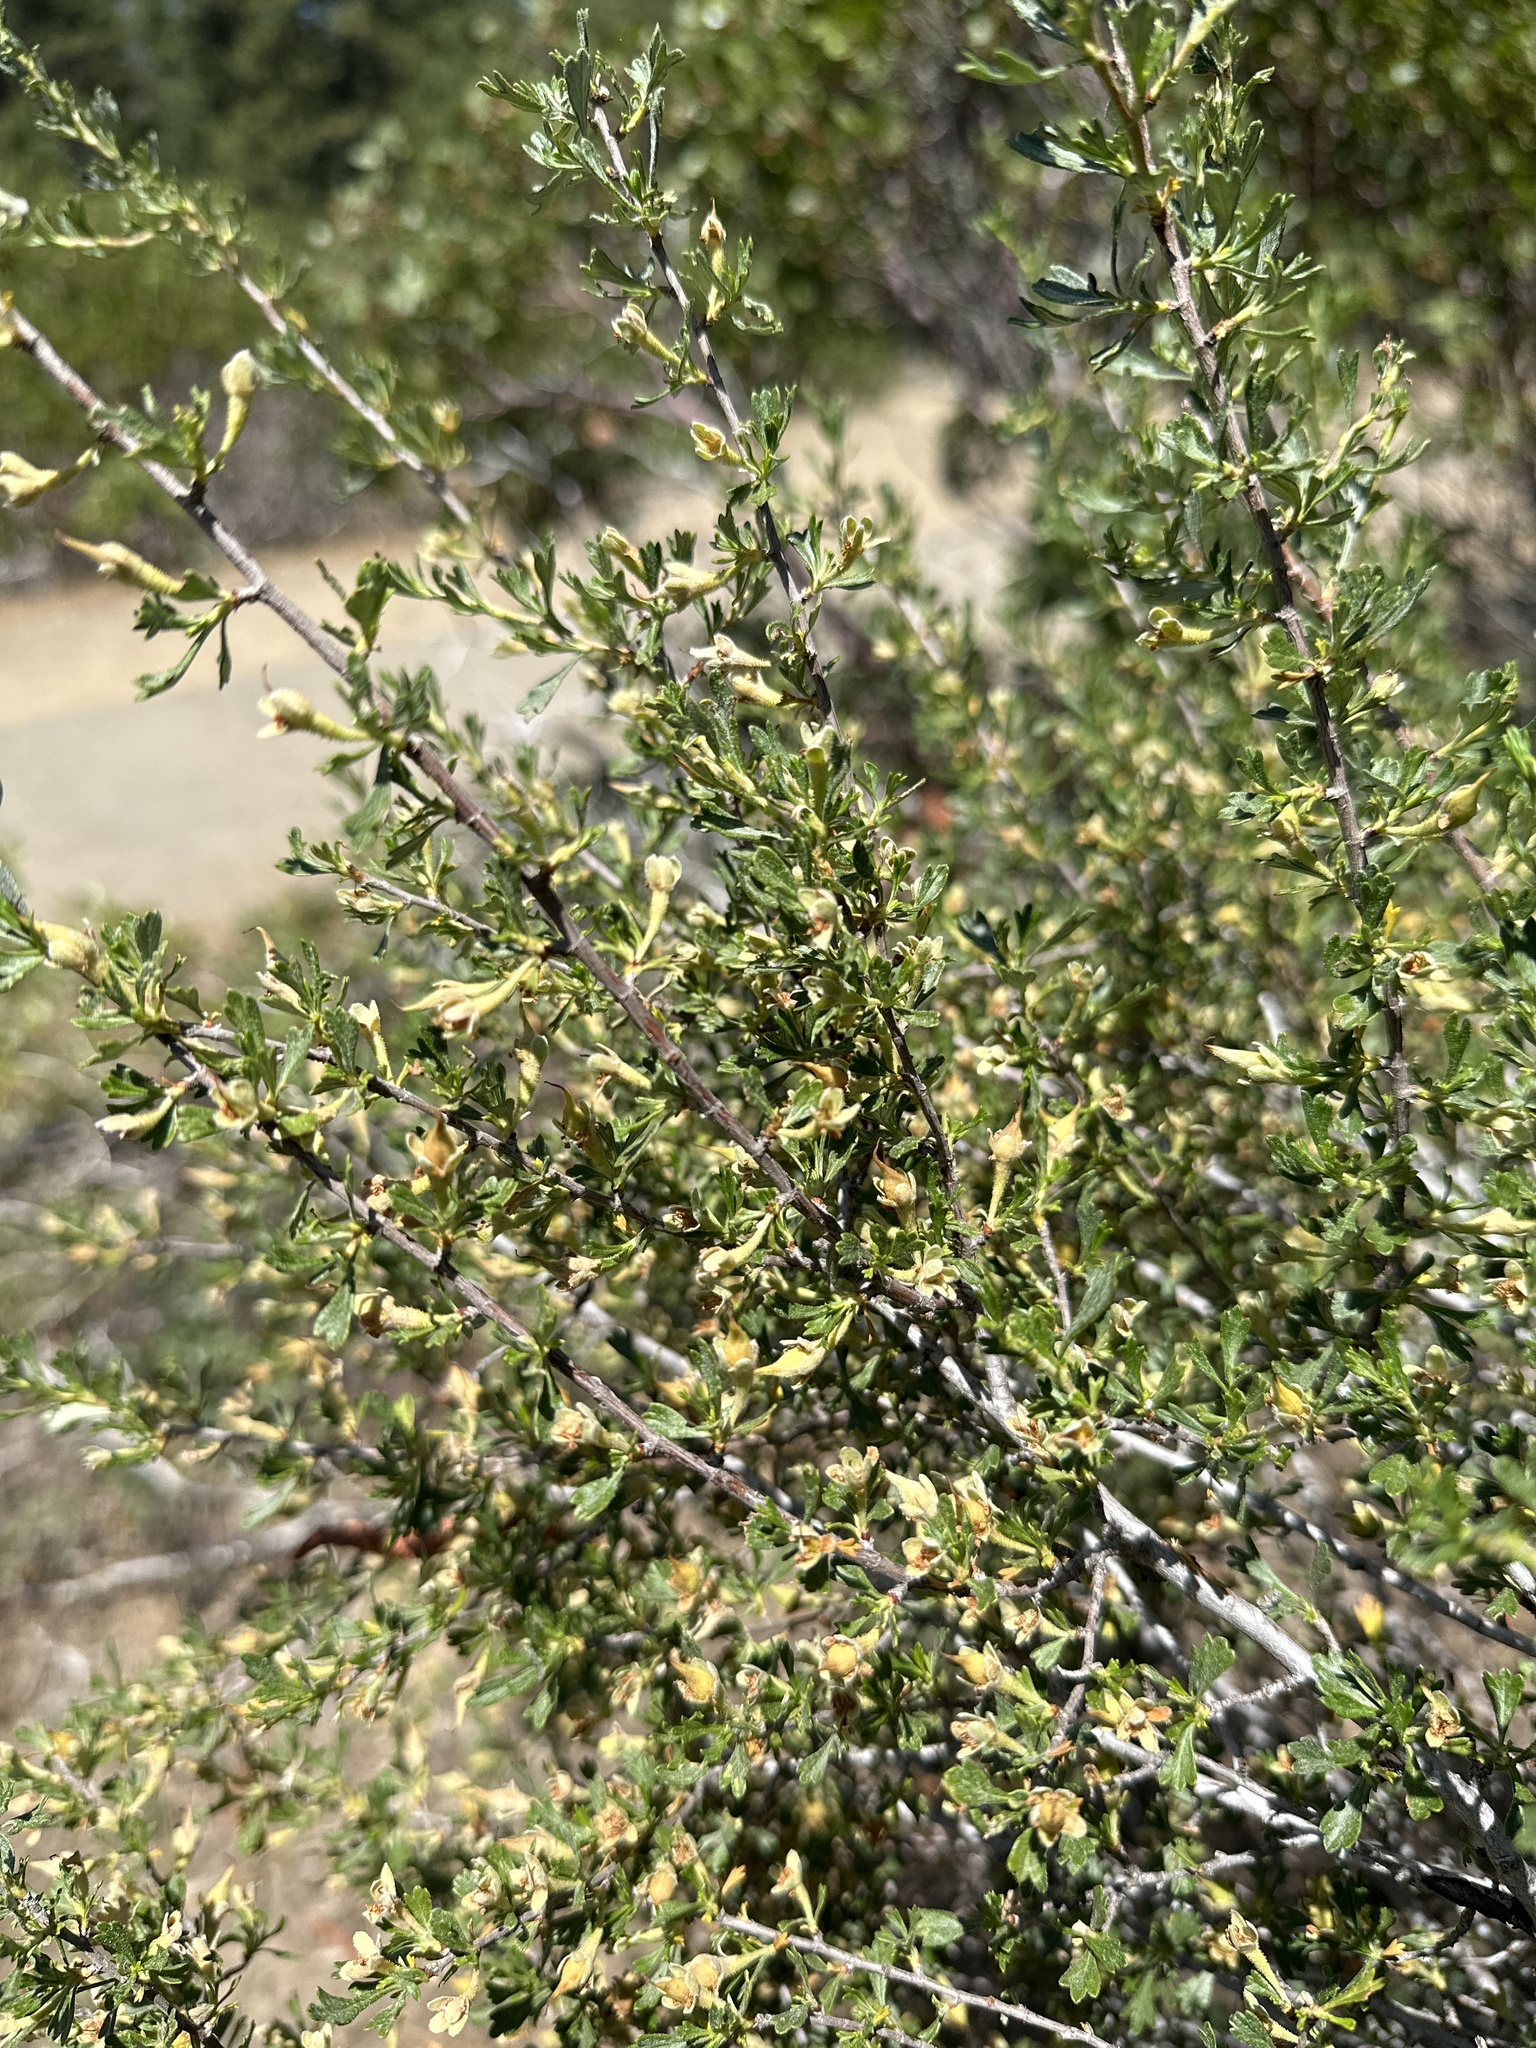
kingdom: Plantae
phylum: Tracheophyta
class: Magnoliopsida
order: Rosales
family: Rosaceae
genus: Purshia
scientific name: Purshia tridentata
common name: Antelope bitterbrush
